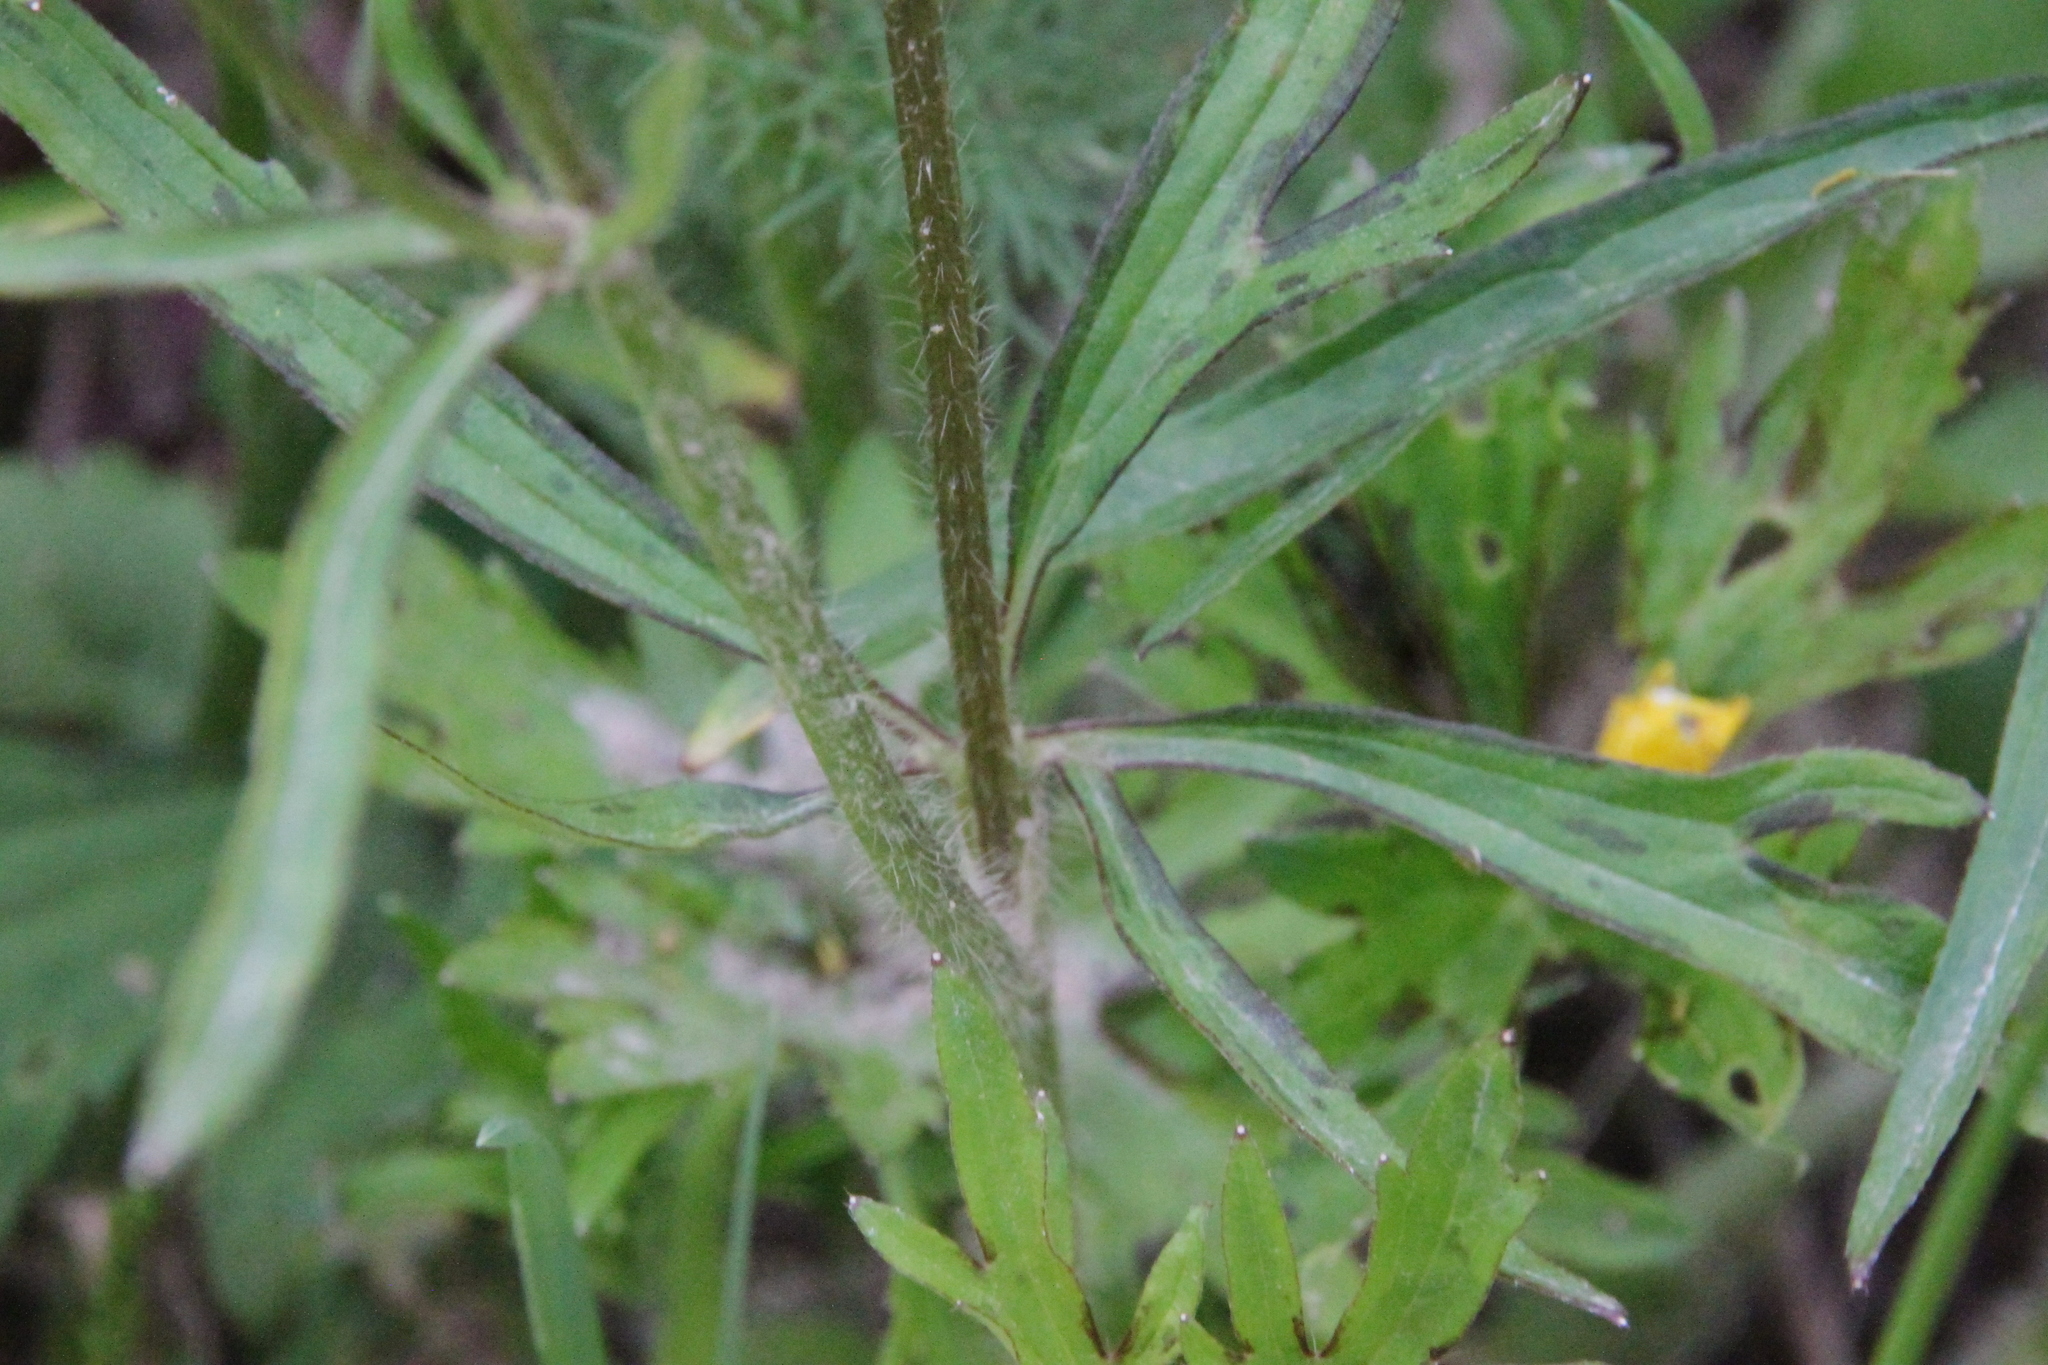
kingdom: Plantae
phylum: Tracheophyta
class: Magnoliopsida
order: Ranunculales
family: Ranunculaceae
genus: Ranunculus
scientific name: Ranunculus polyanthemos
